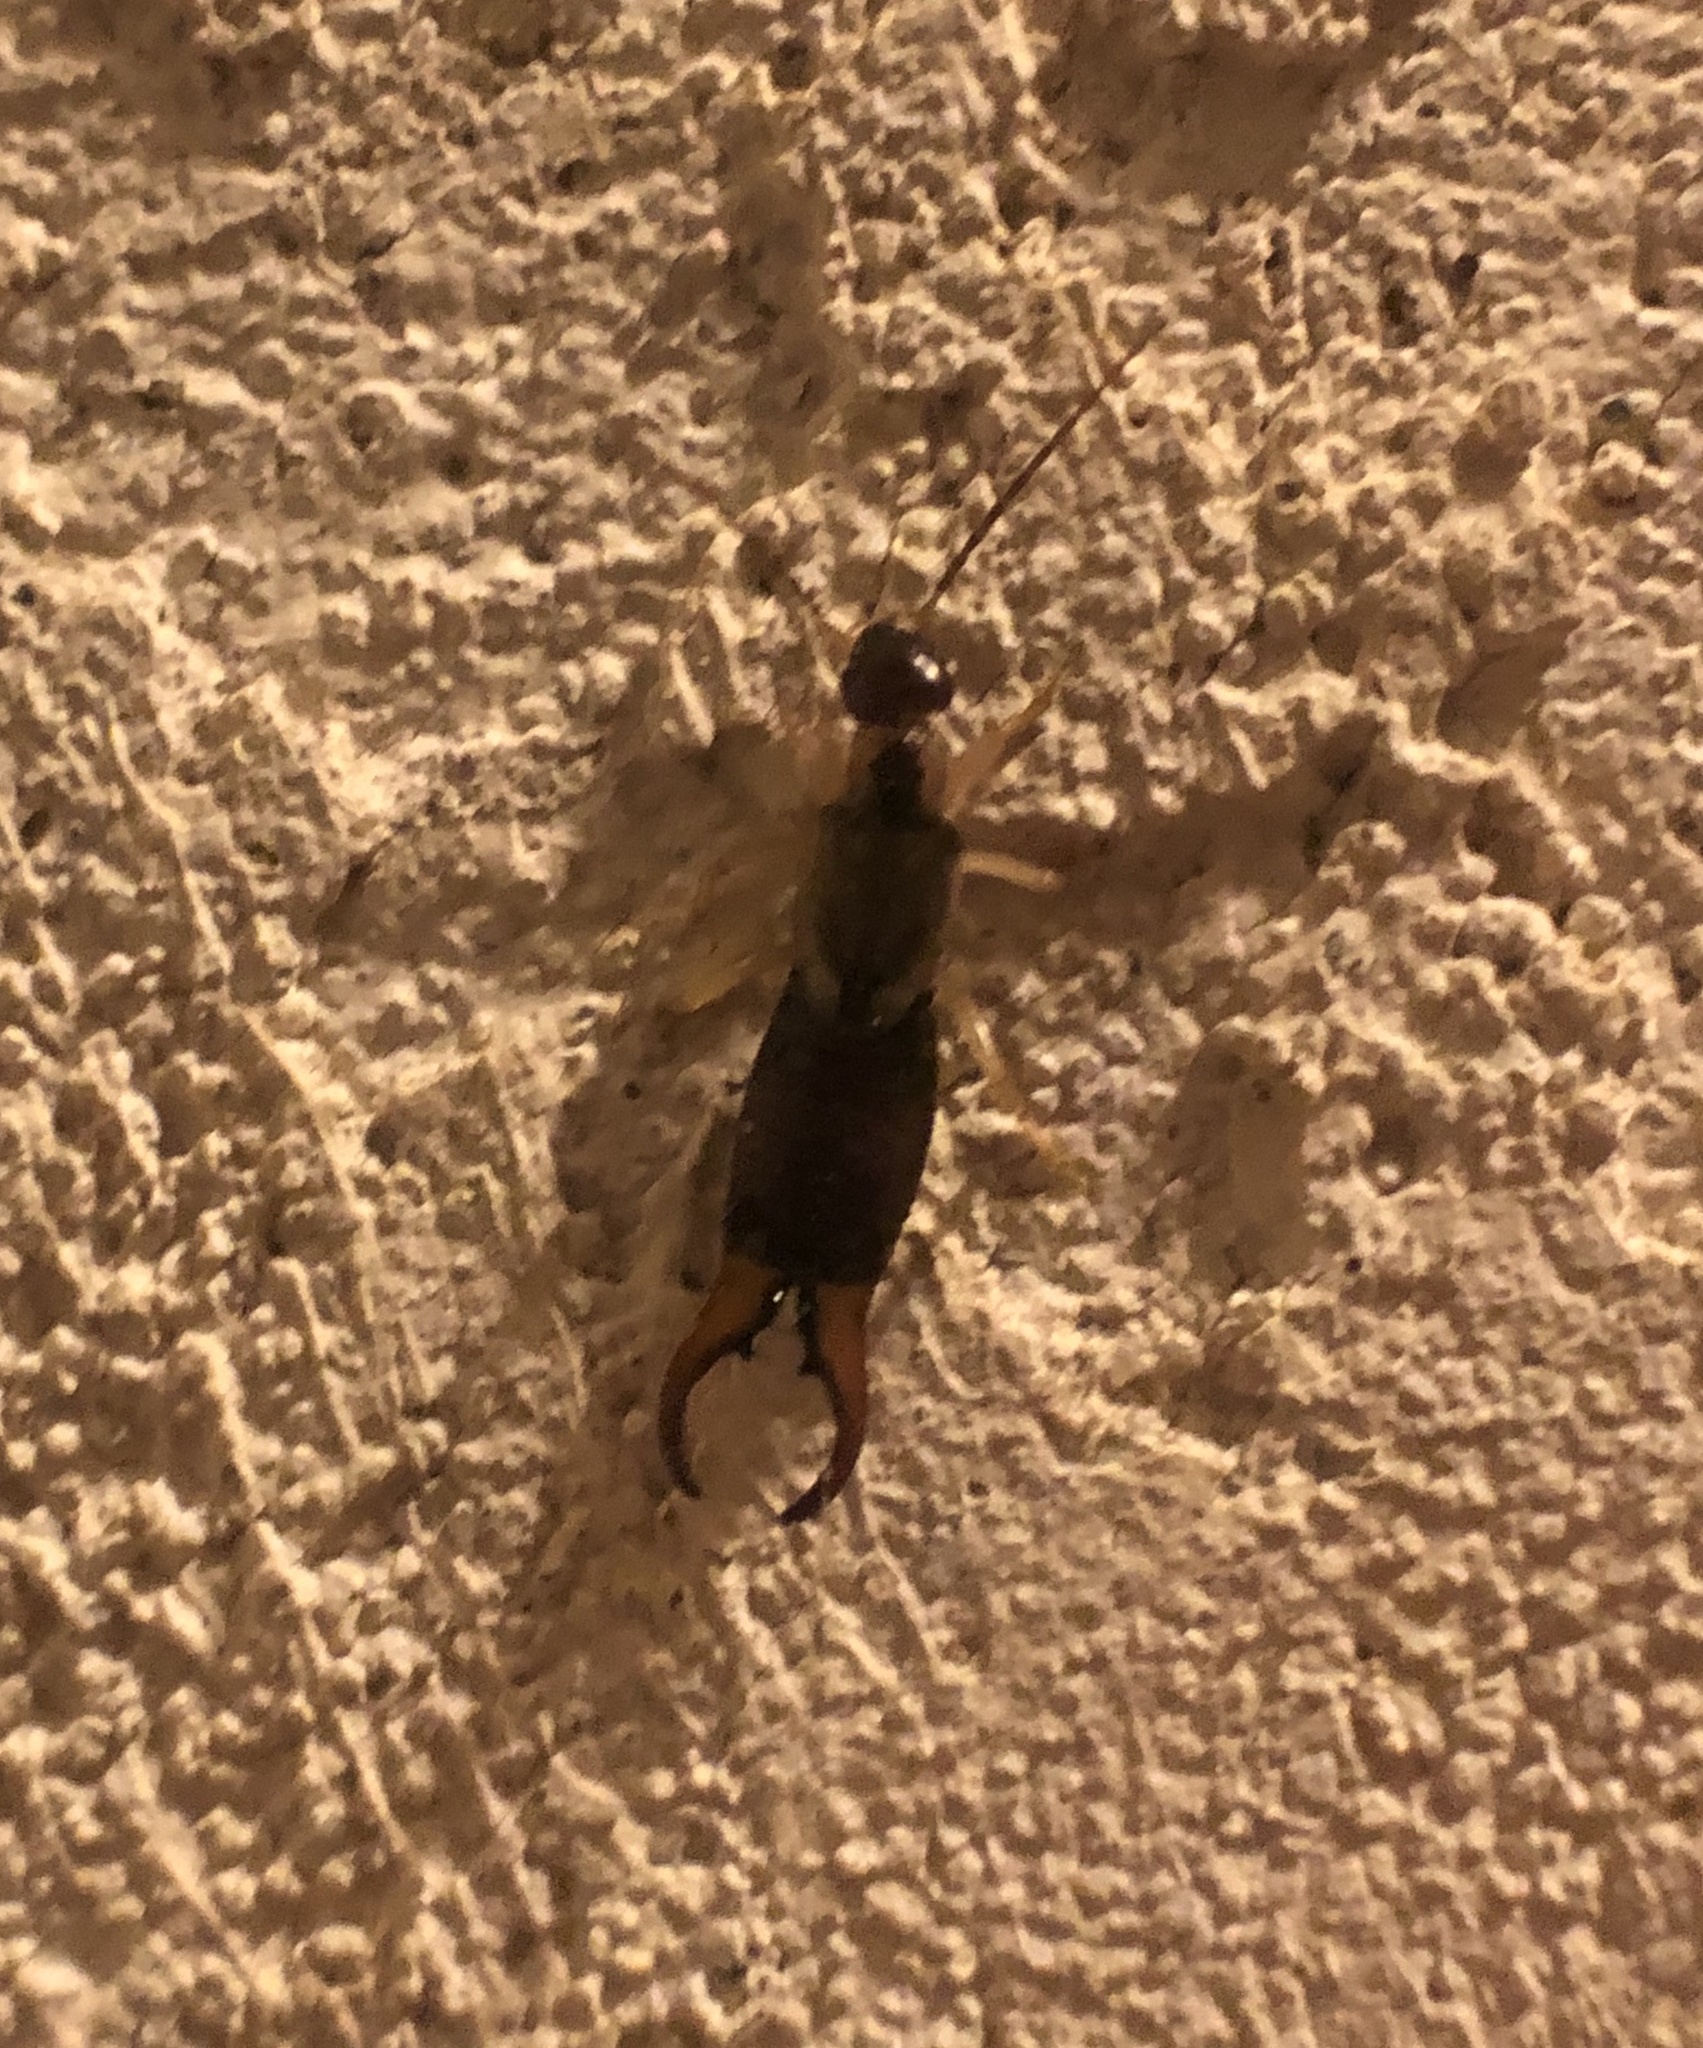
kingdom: Animalia
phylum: Arthropoda
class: Insecta
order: Dermaptera
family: Forficulidae
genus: Forficula
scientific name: Forficula
